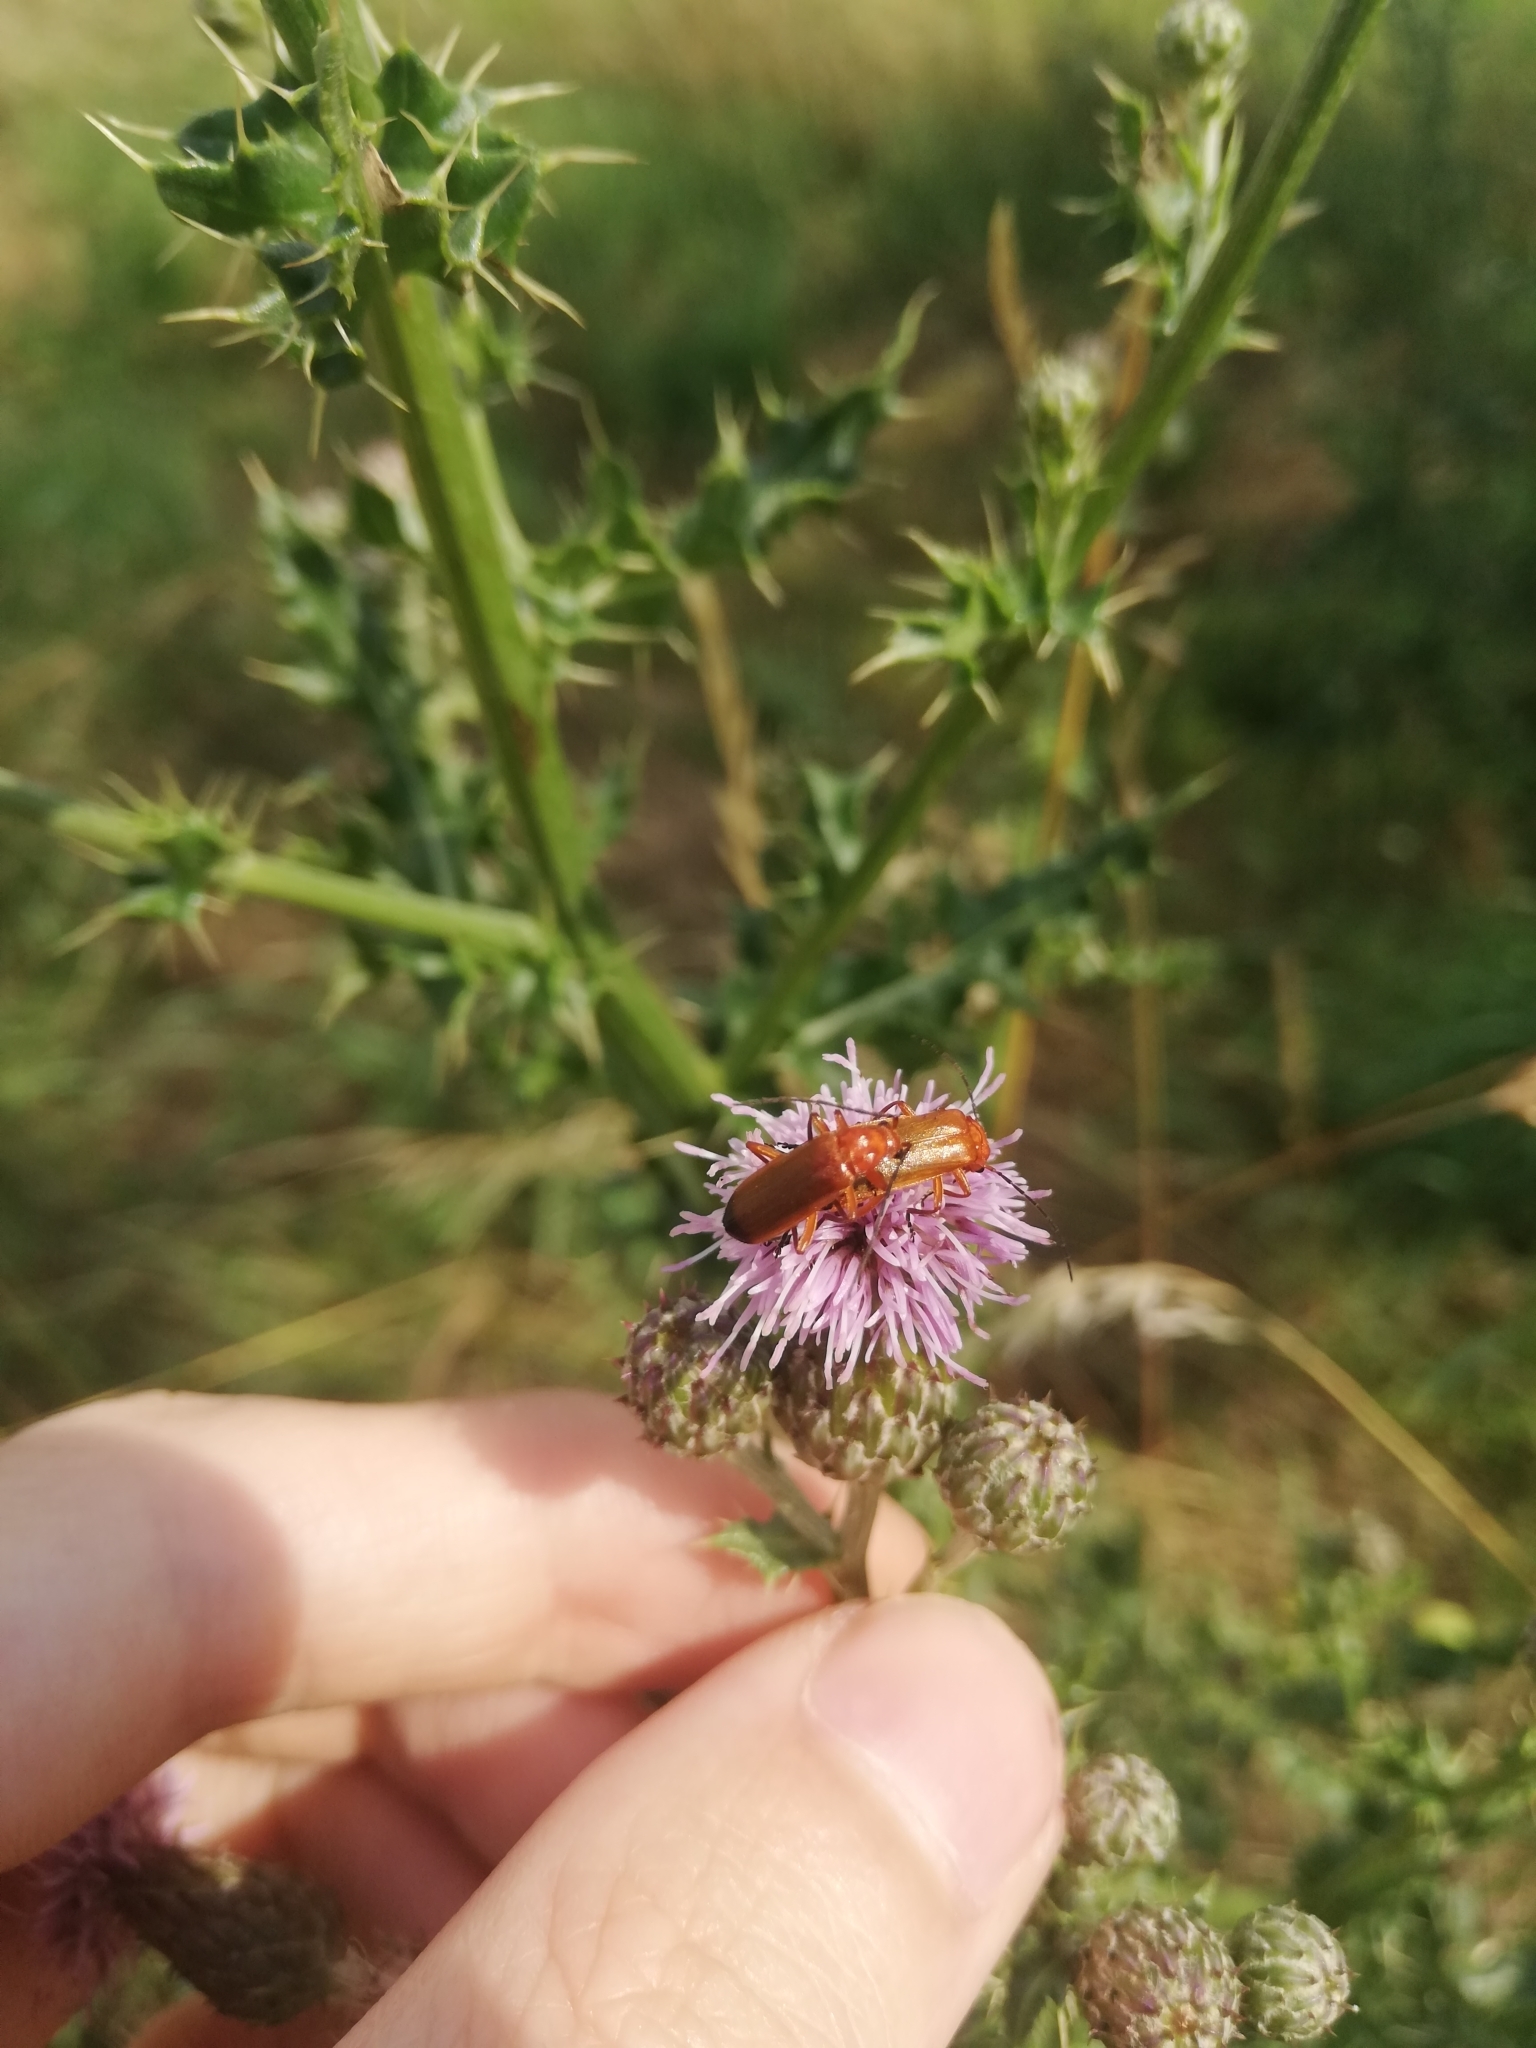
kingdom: Animalia
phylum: Arthropoda
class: Insecta
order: Coleoptera
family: Cantharidae
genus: Rhagonycha
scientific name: Rhagonycha fulva
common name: Common red soldier beetle
